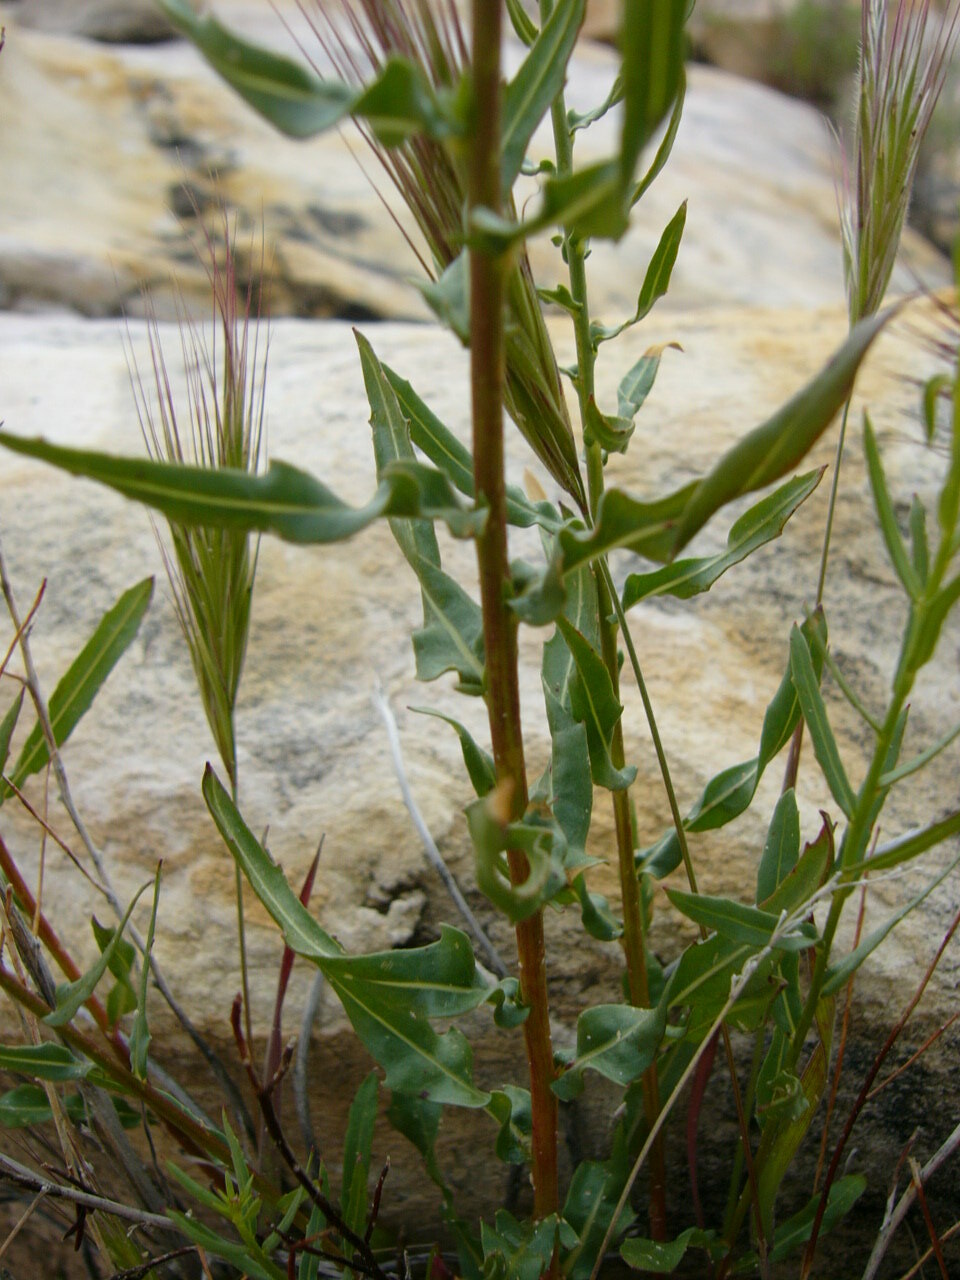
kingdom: Plantae
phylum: Tracheophyta
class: Magnoliopsida
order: Myrtales
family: Onagraceae
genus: Oenothera
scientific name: Oenothera suffrutescens
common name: Scarlet beeblossom
